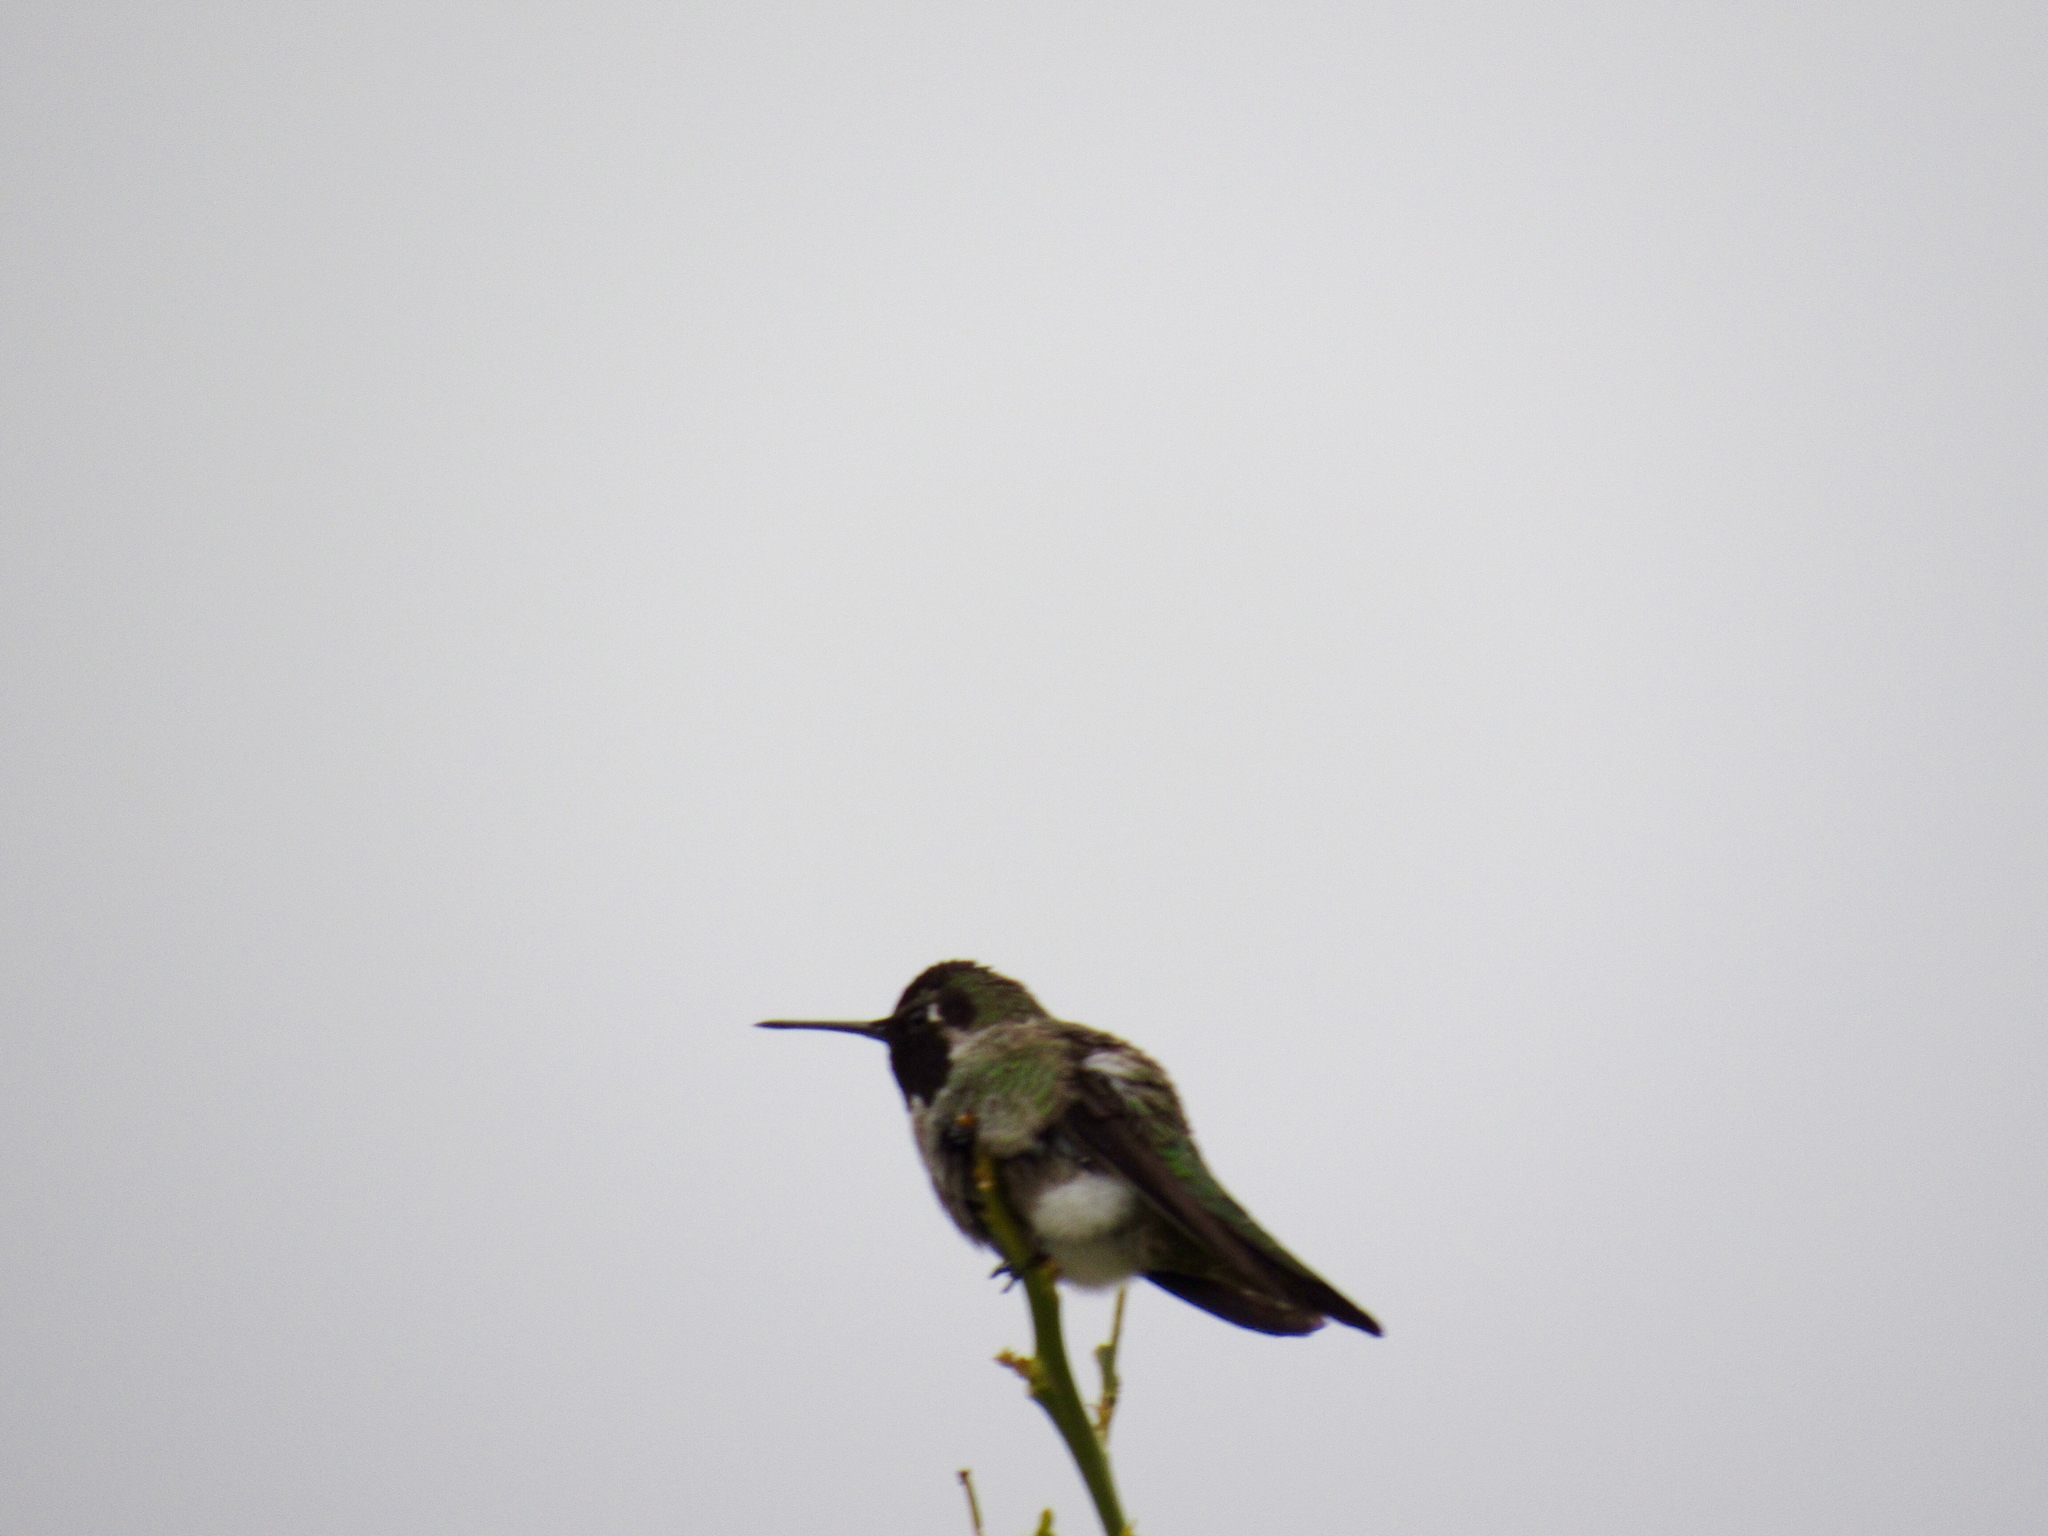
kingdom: Animalia
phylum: Chordata
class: Aves
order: Apodiformes
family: Trochilidae
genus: Calypte
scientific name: Calypte anna
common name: Anna's hummingbird
